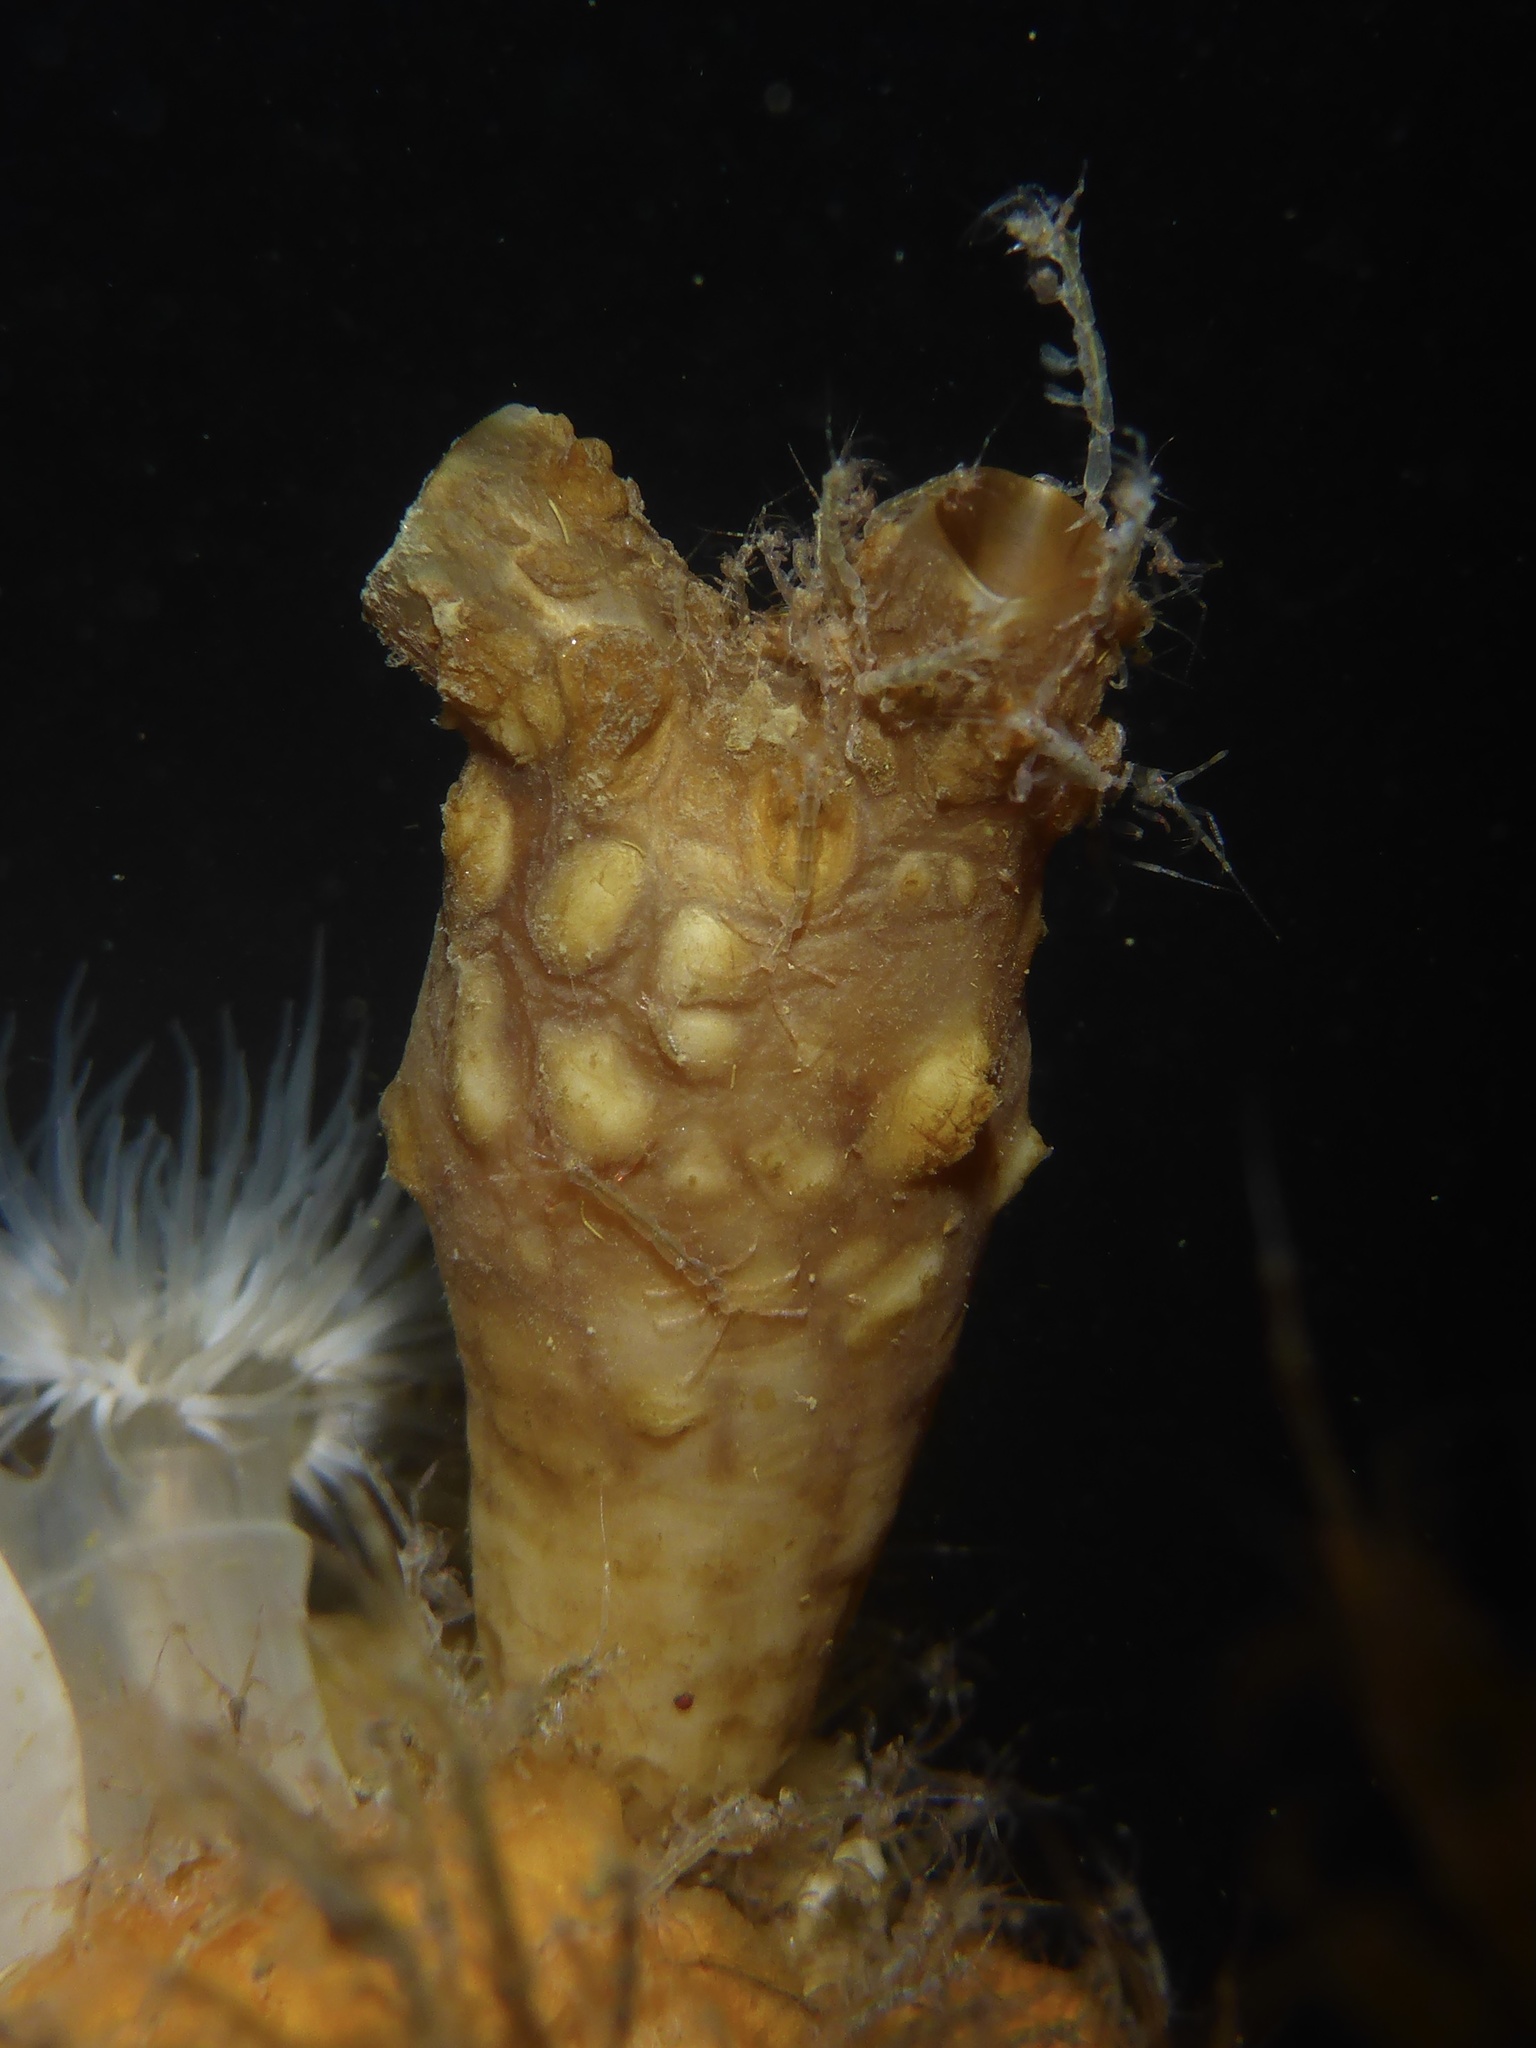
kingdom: Animalia
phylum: Chordata
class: Ascidiacea
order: Stolidobranchia
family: Styelidae
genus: Styela
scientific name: Styela clava
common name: Leathery sea squirt
